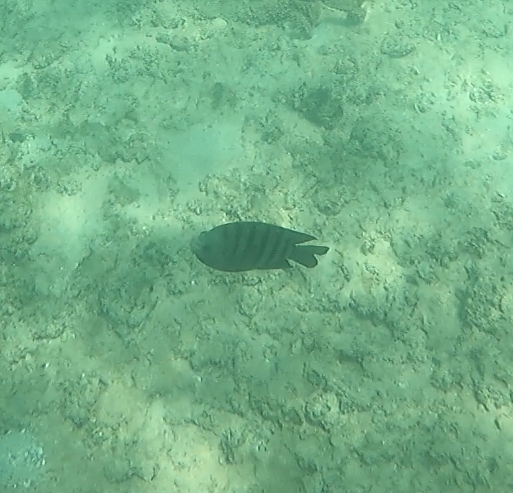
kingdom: Animalia
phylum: Chordata
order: Perciformes
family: Pomacentridae
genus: Abudefduf
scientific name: Abudefduf bengalensis
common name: Bengal sergeant
